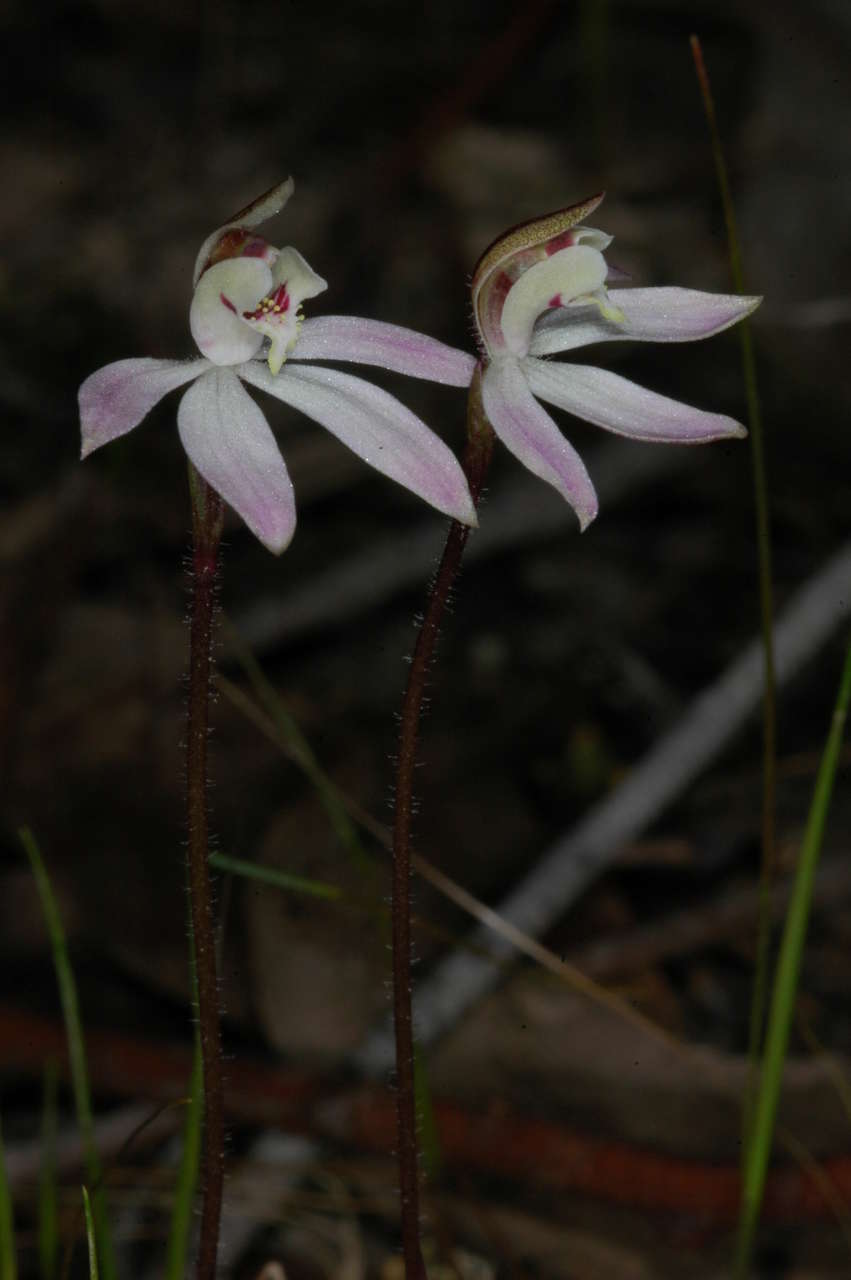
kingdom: Plantae
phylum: Tracheophyta
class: Liliopsida
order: Asparagales
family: Orchidaceae
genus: Caladenia
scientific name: Caladenia fuscata
